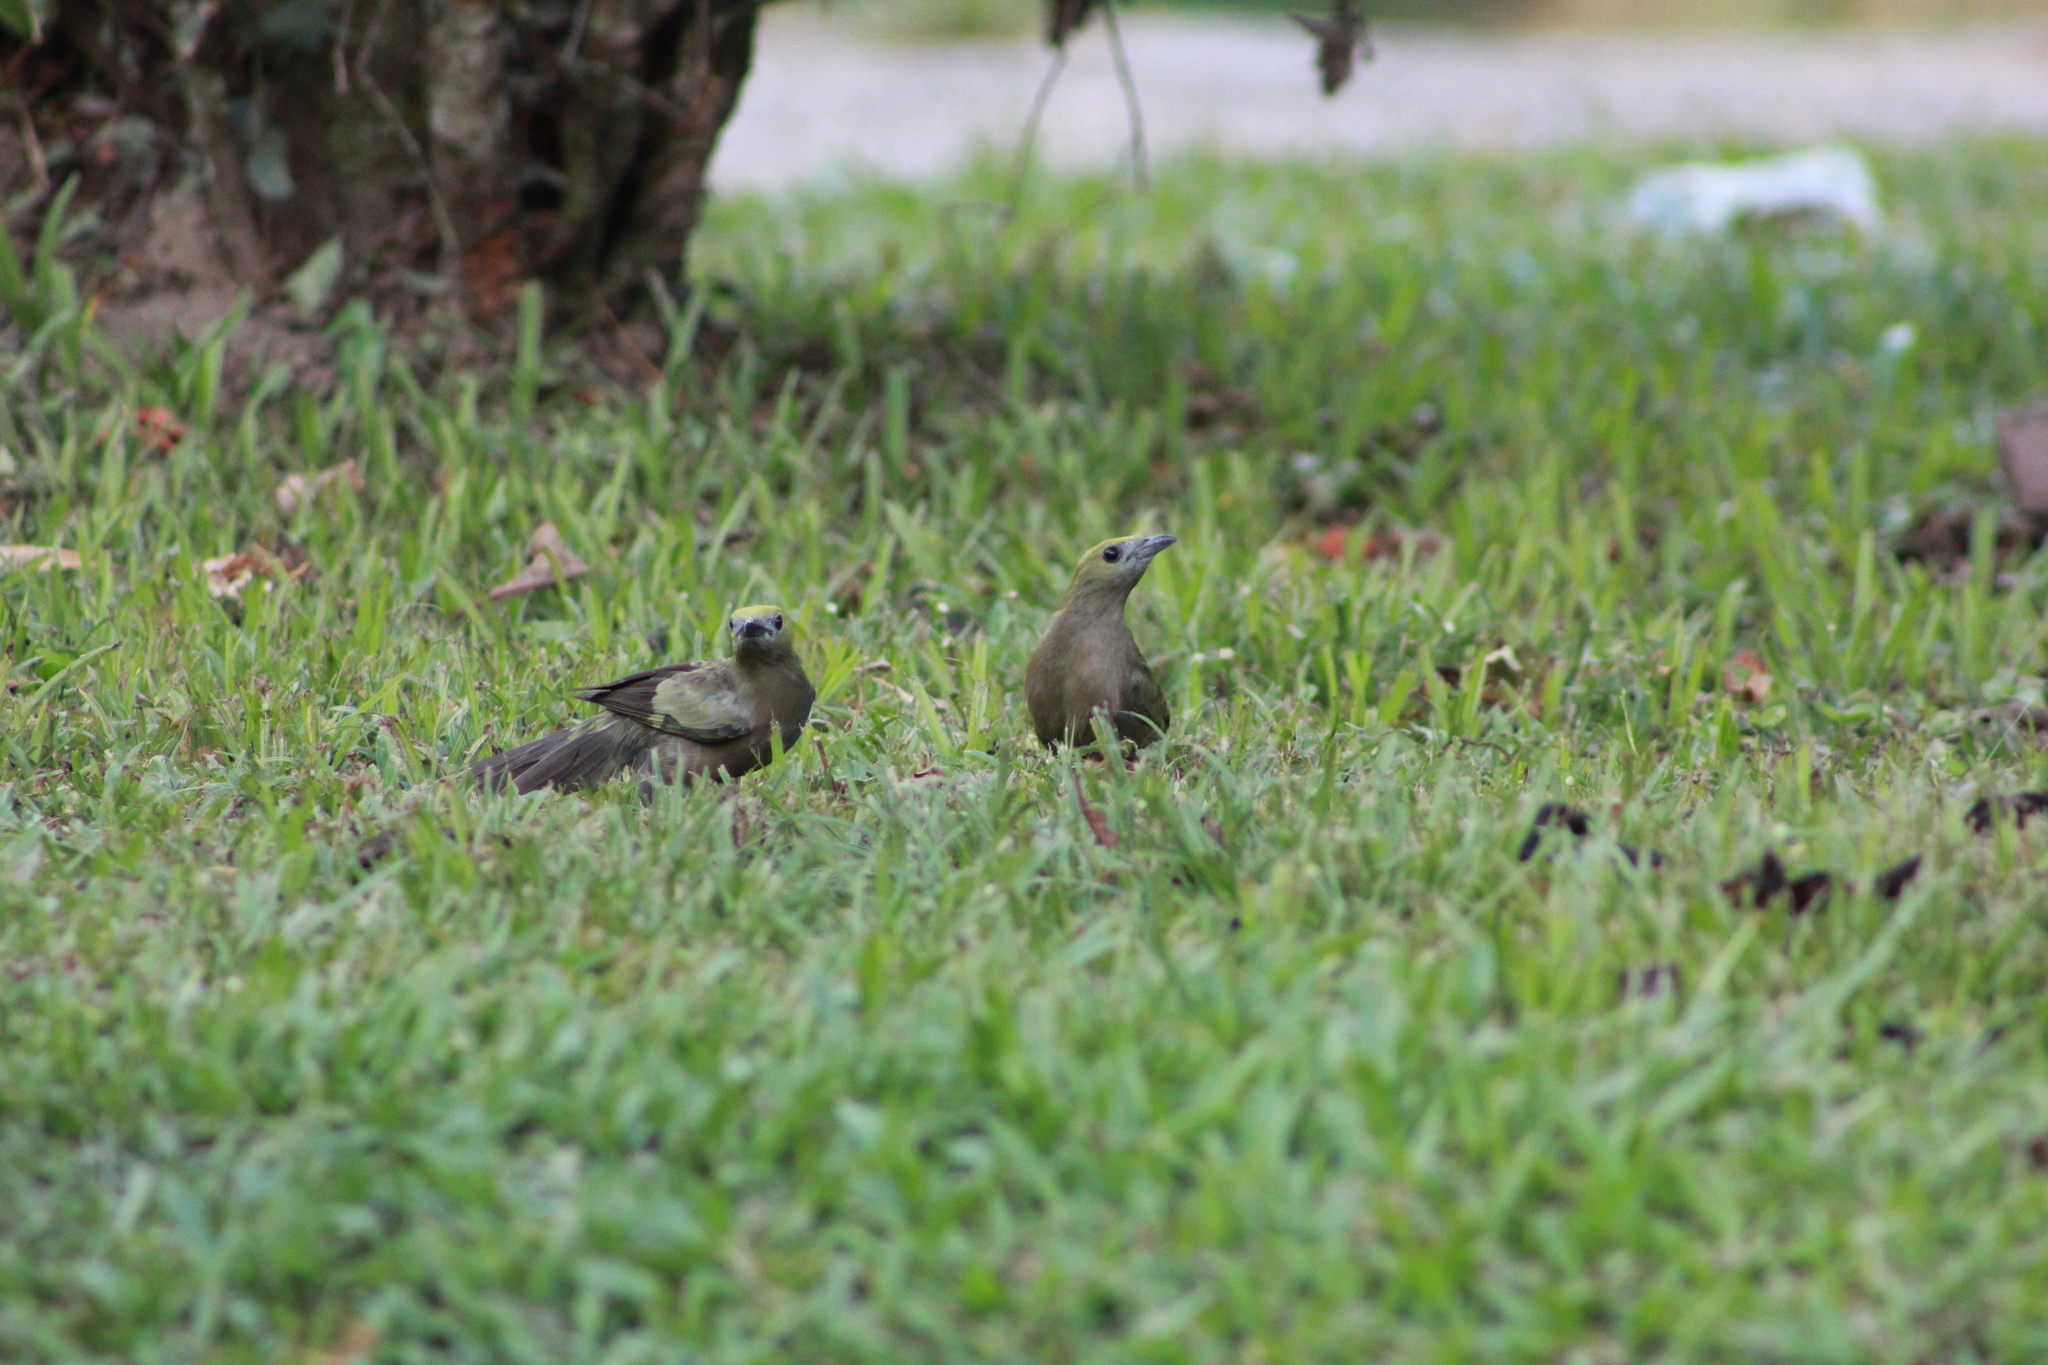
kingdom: Animalia
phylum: Chordata
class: Aves
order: Passeriformes
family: Thraupidae
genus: Thraupis
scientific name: Thraupis palmarum
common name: Palm tanager
